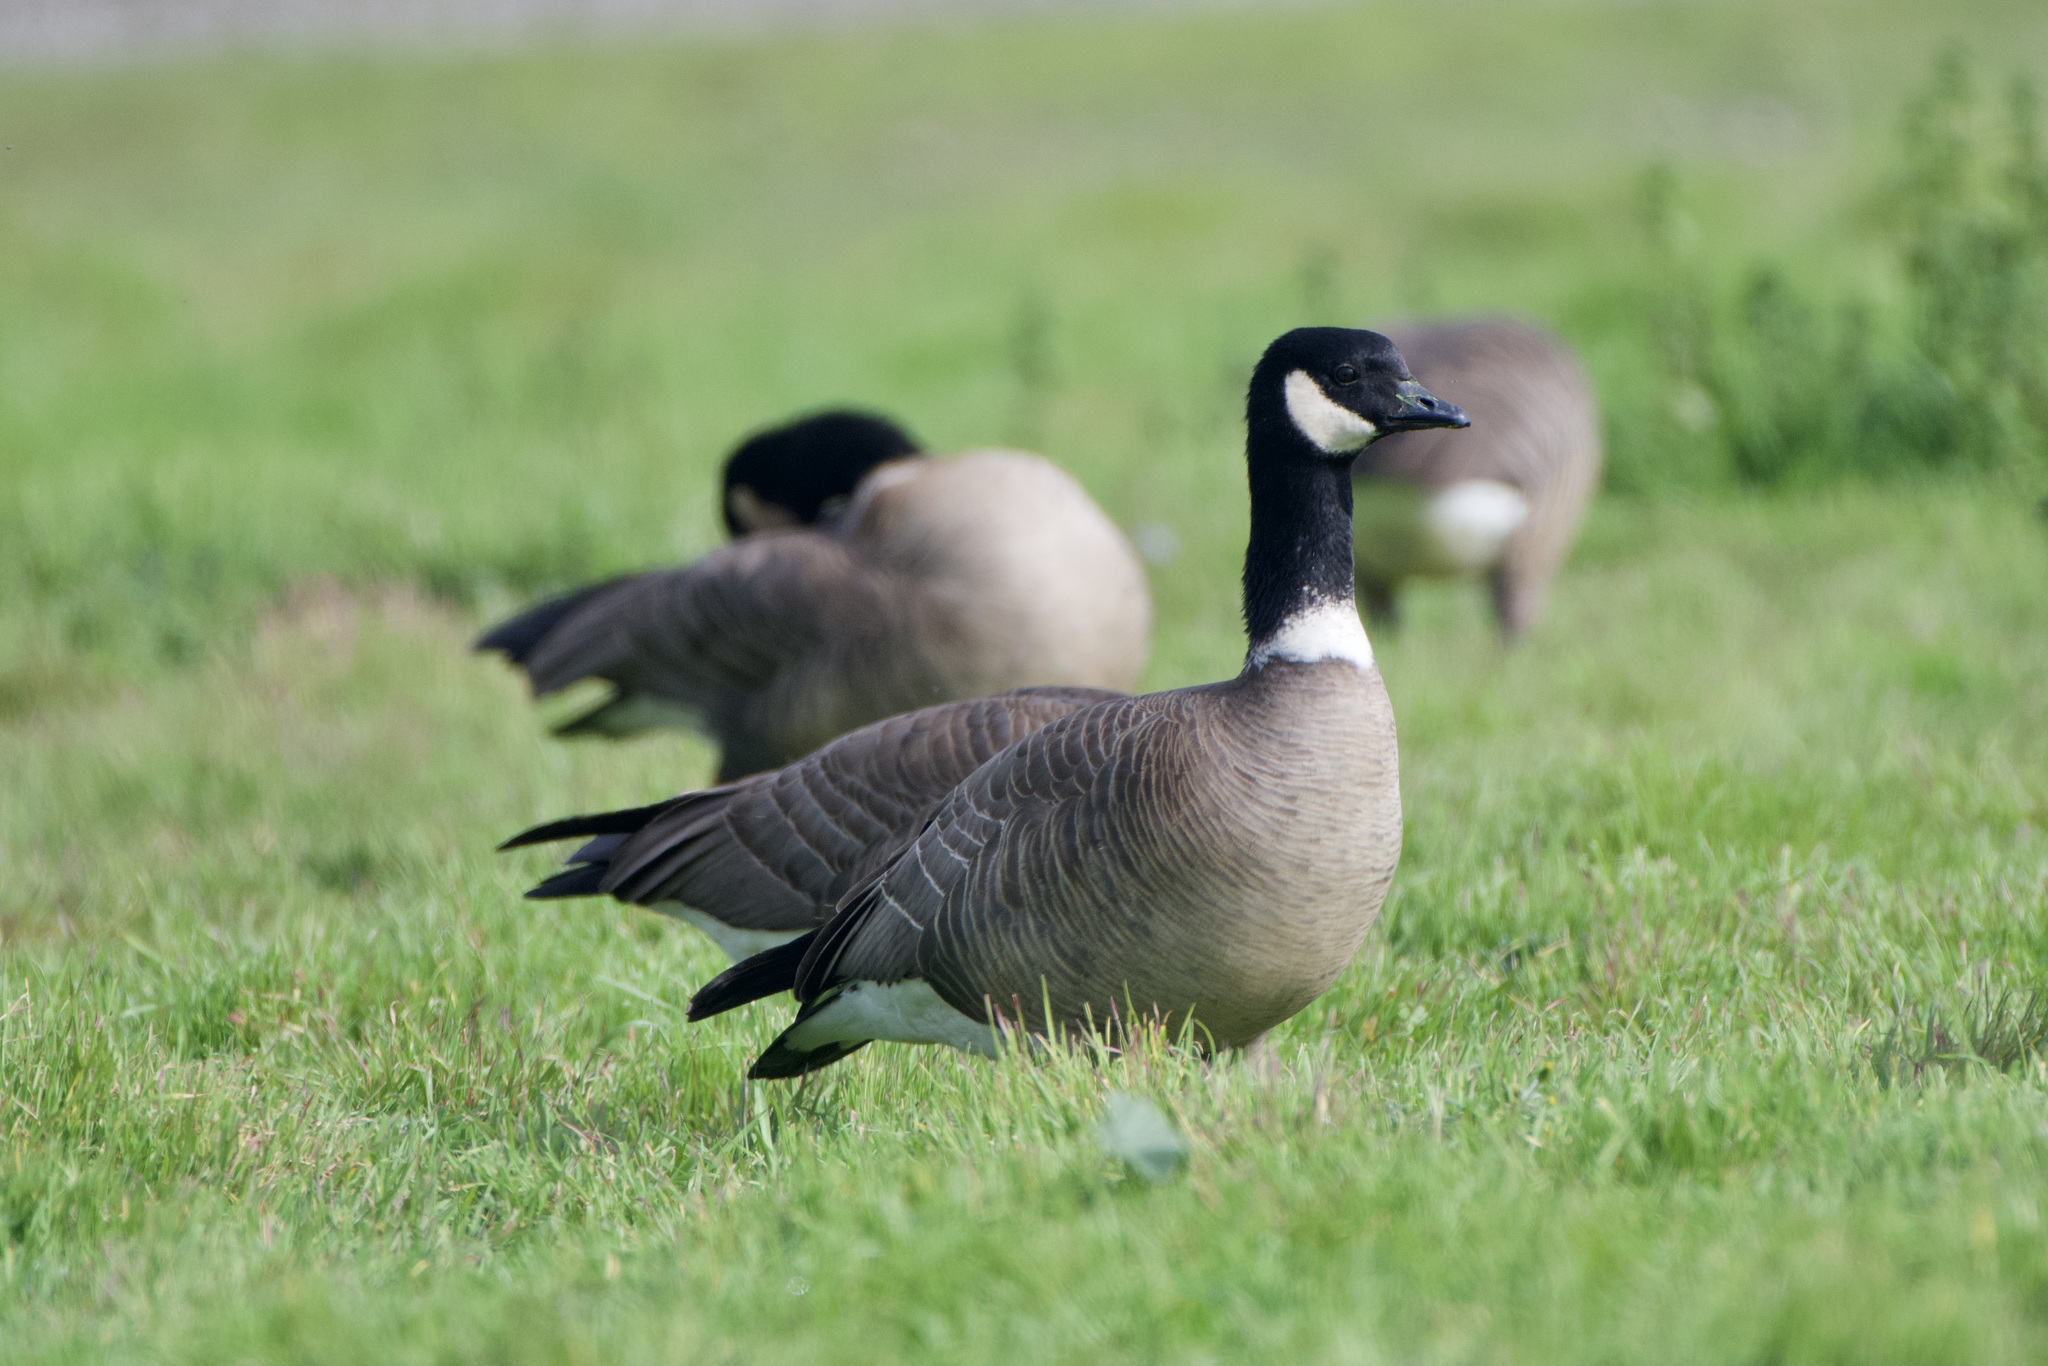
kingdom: Animalia
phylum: Chordata
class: Aves
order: Anseriformes
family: Anatidae
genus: Branta
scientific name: Branta hutchinsii
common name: Cackling goose
